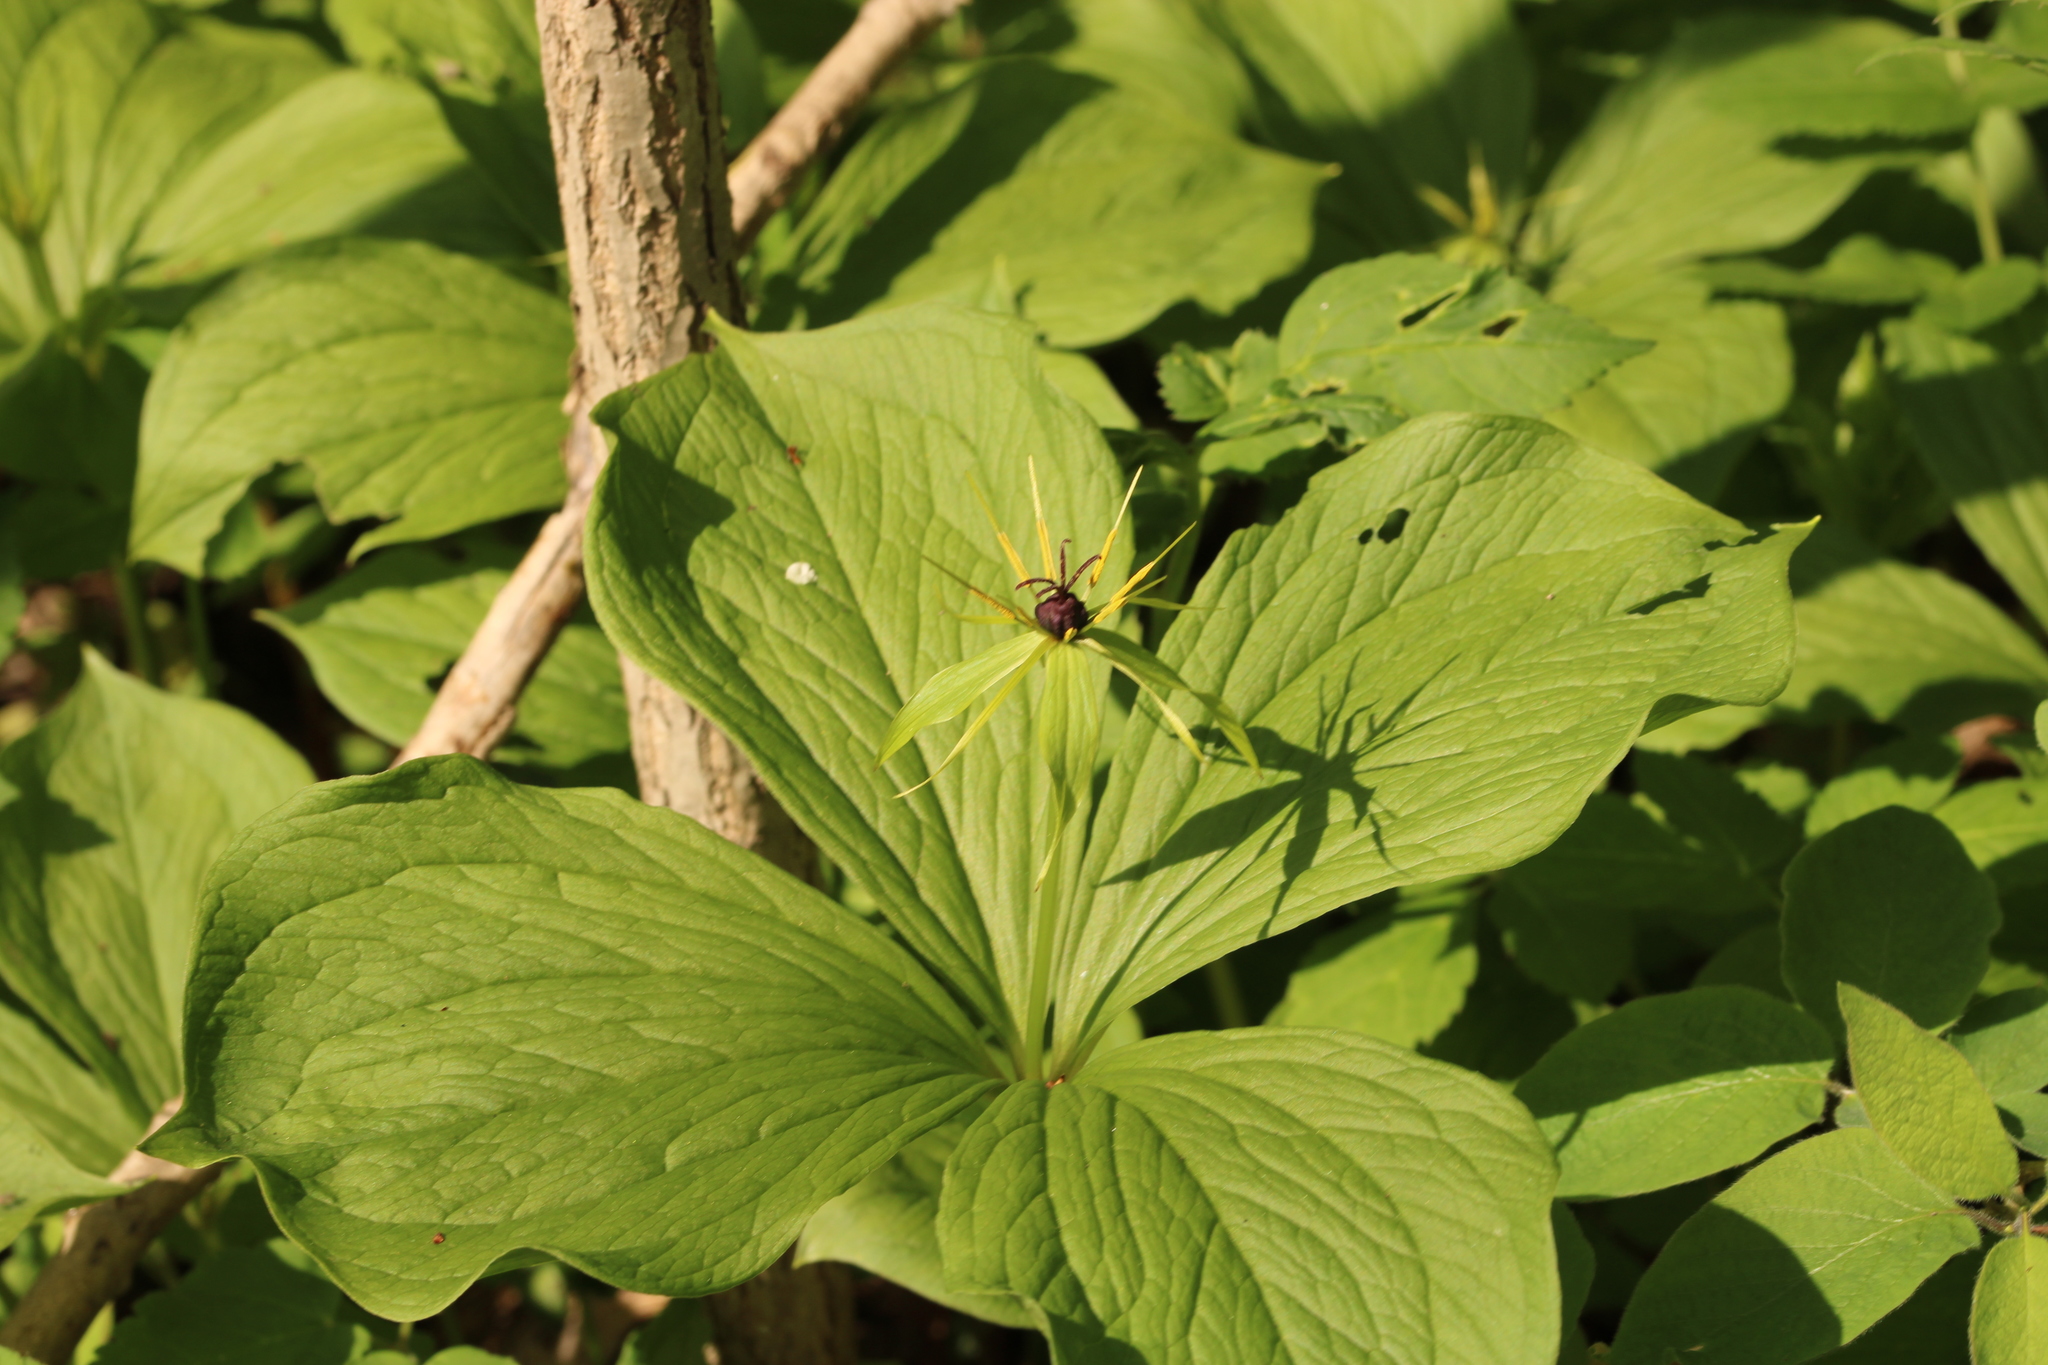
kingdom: Plantae
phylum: Tracheophyta
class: Liliopsida
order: Liliales
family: Melanthiaceae
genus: Paris
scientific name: Paris quadrifolia
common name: Herb-paris
